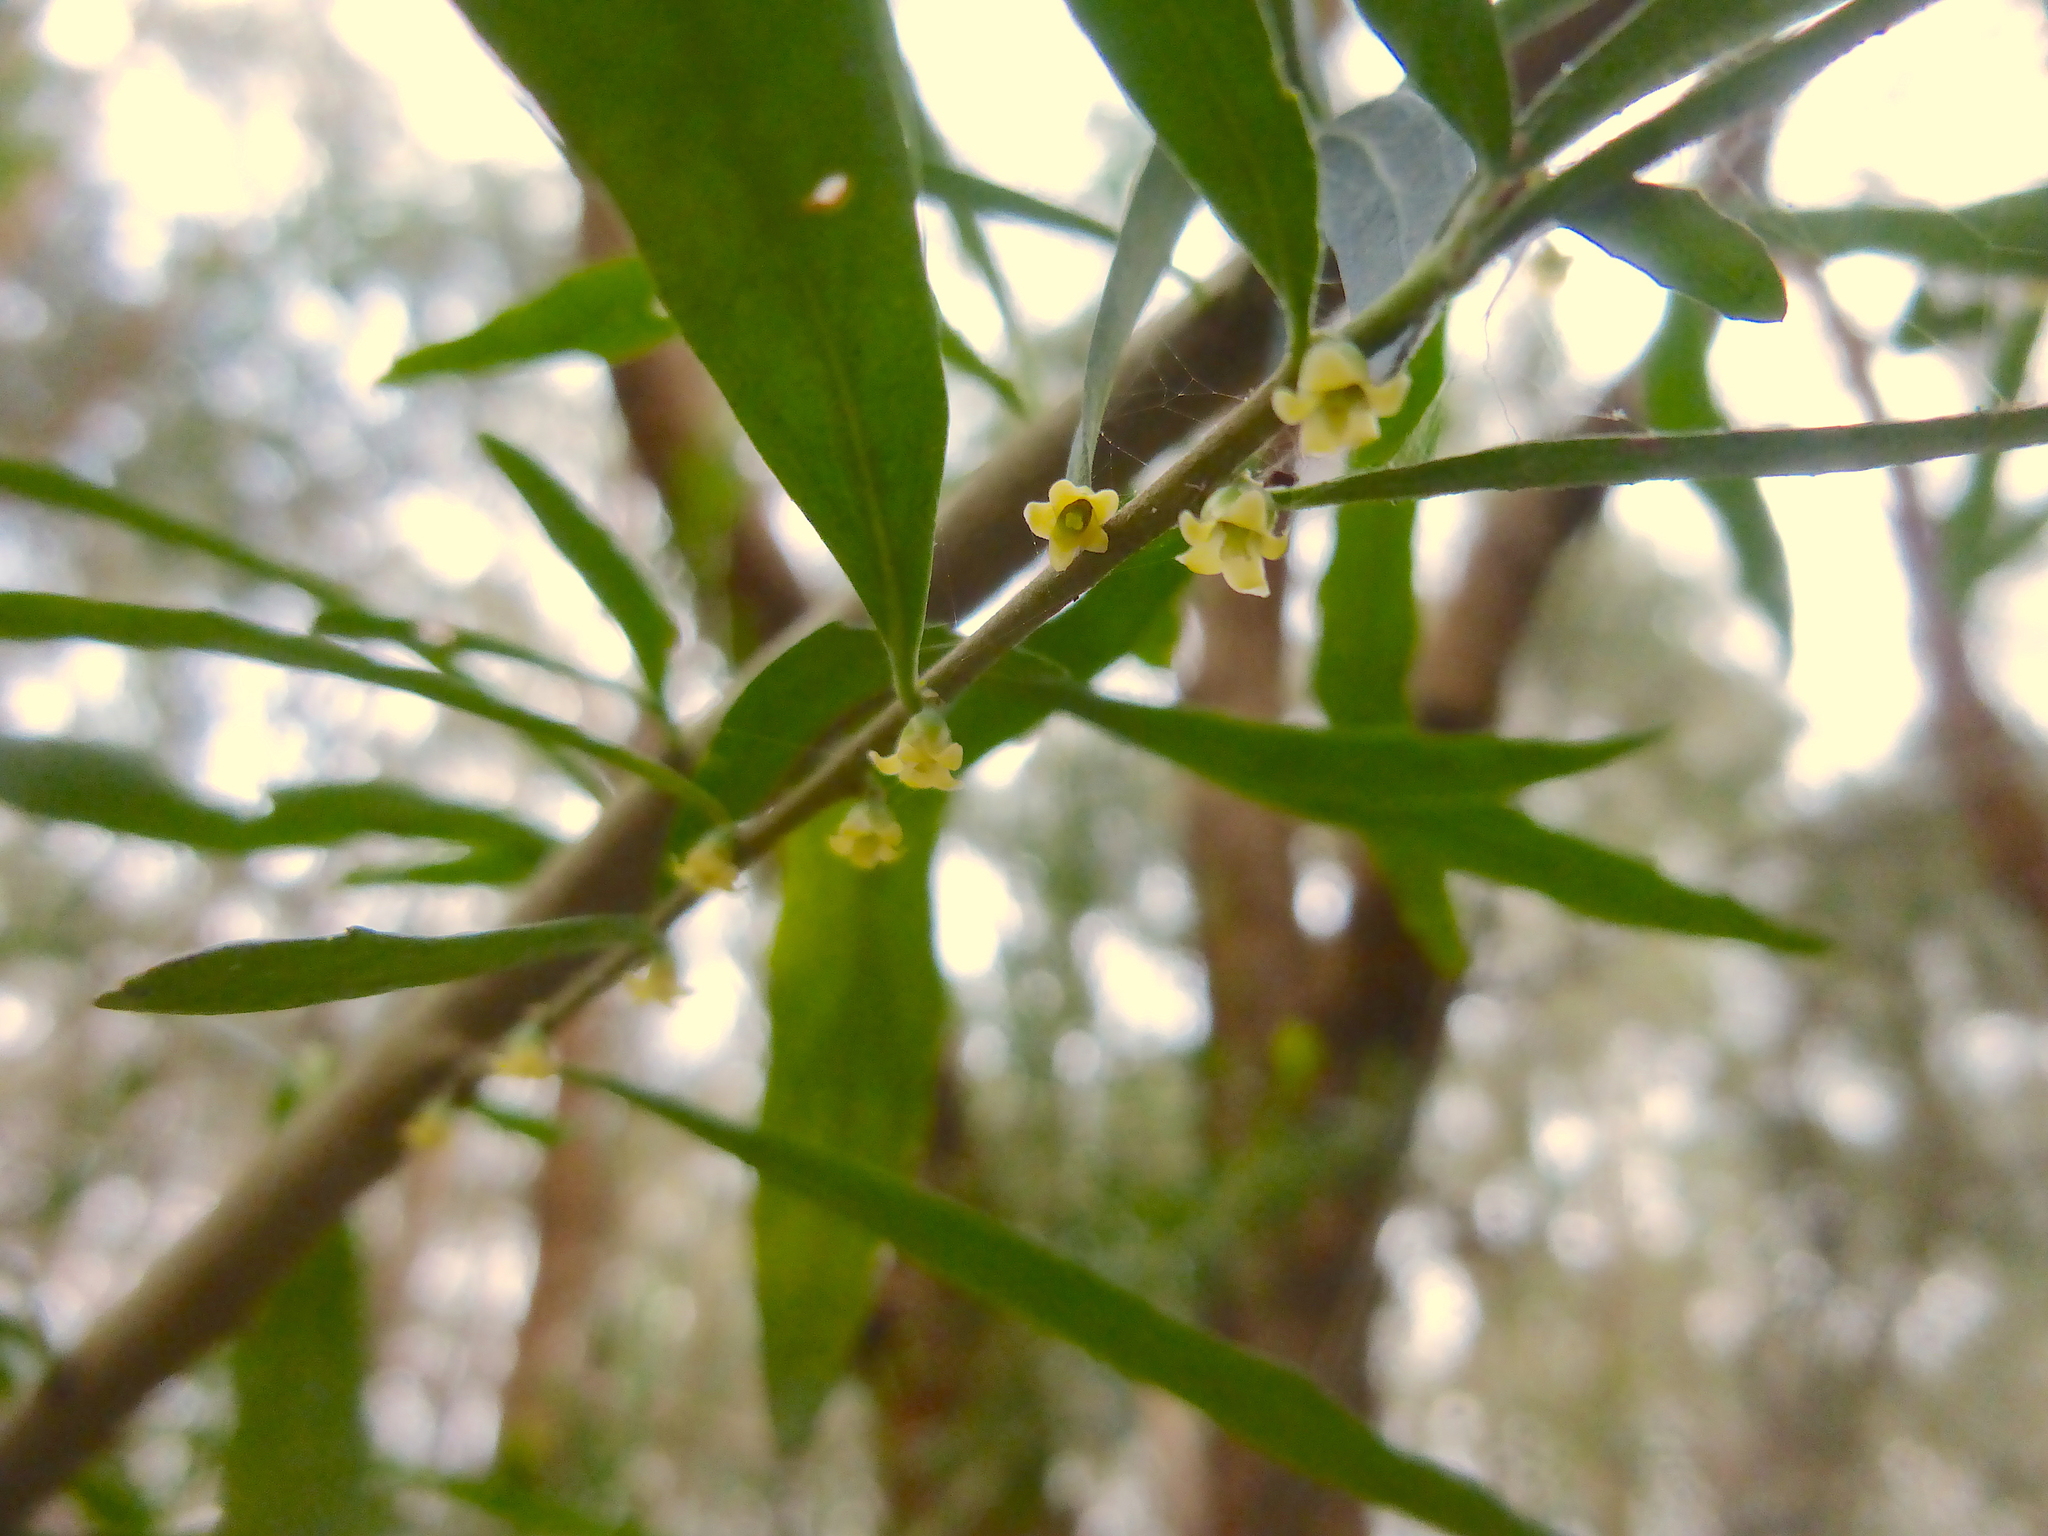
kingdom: Plantae
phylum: Tracheophyta
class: Magnoliopsida
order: Malpighiales
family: Violaceae
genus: Melicytus
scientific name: Melicytus dentatus
